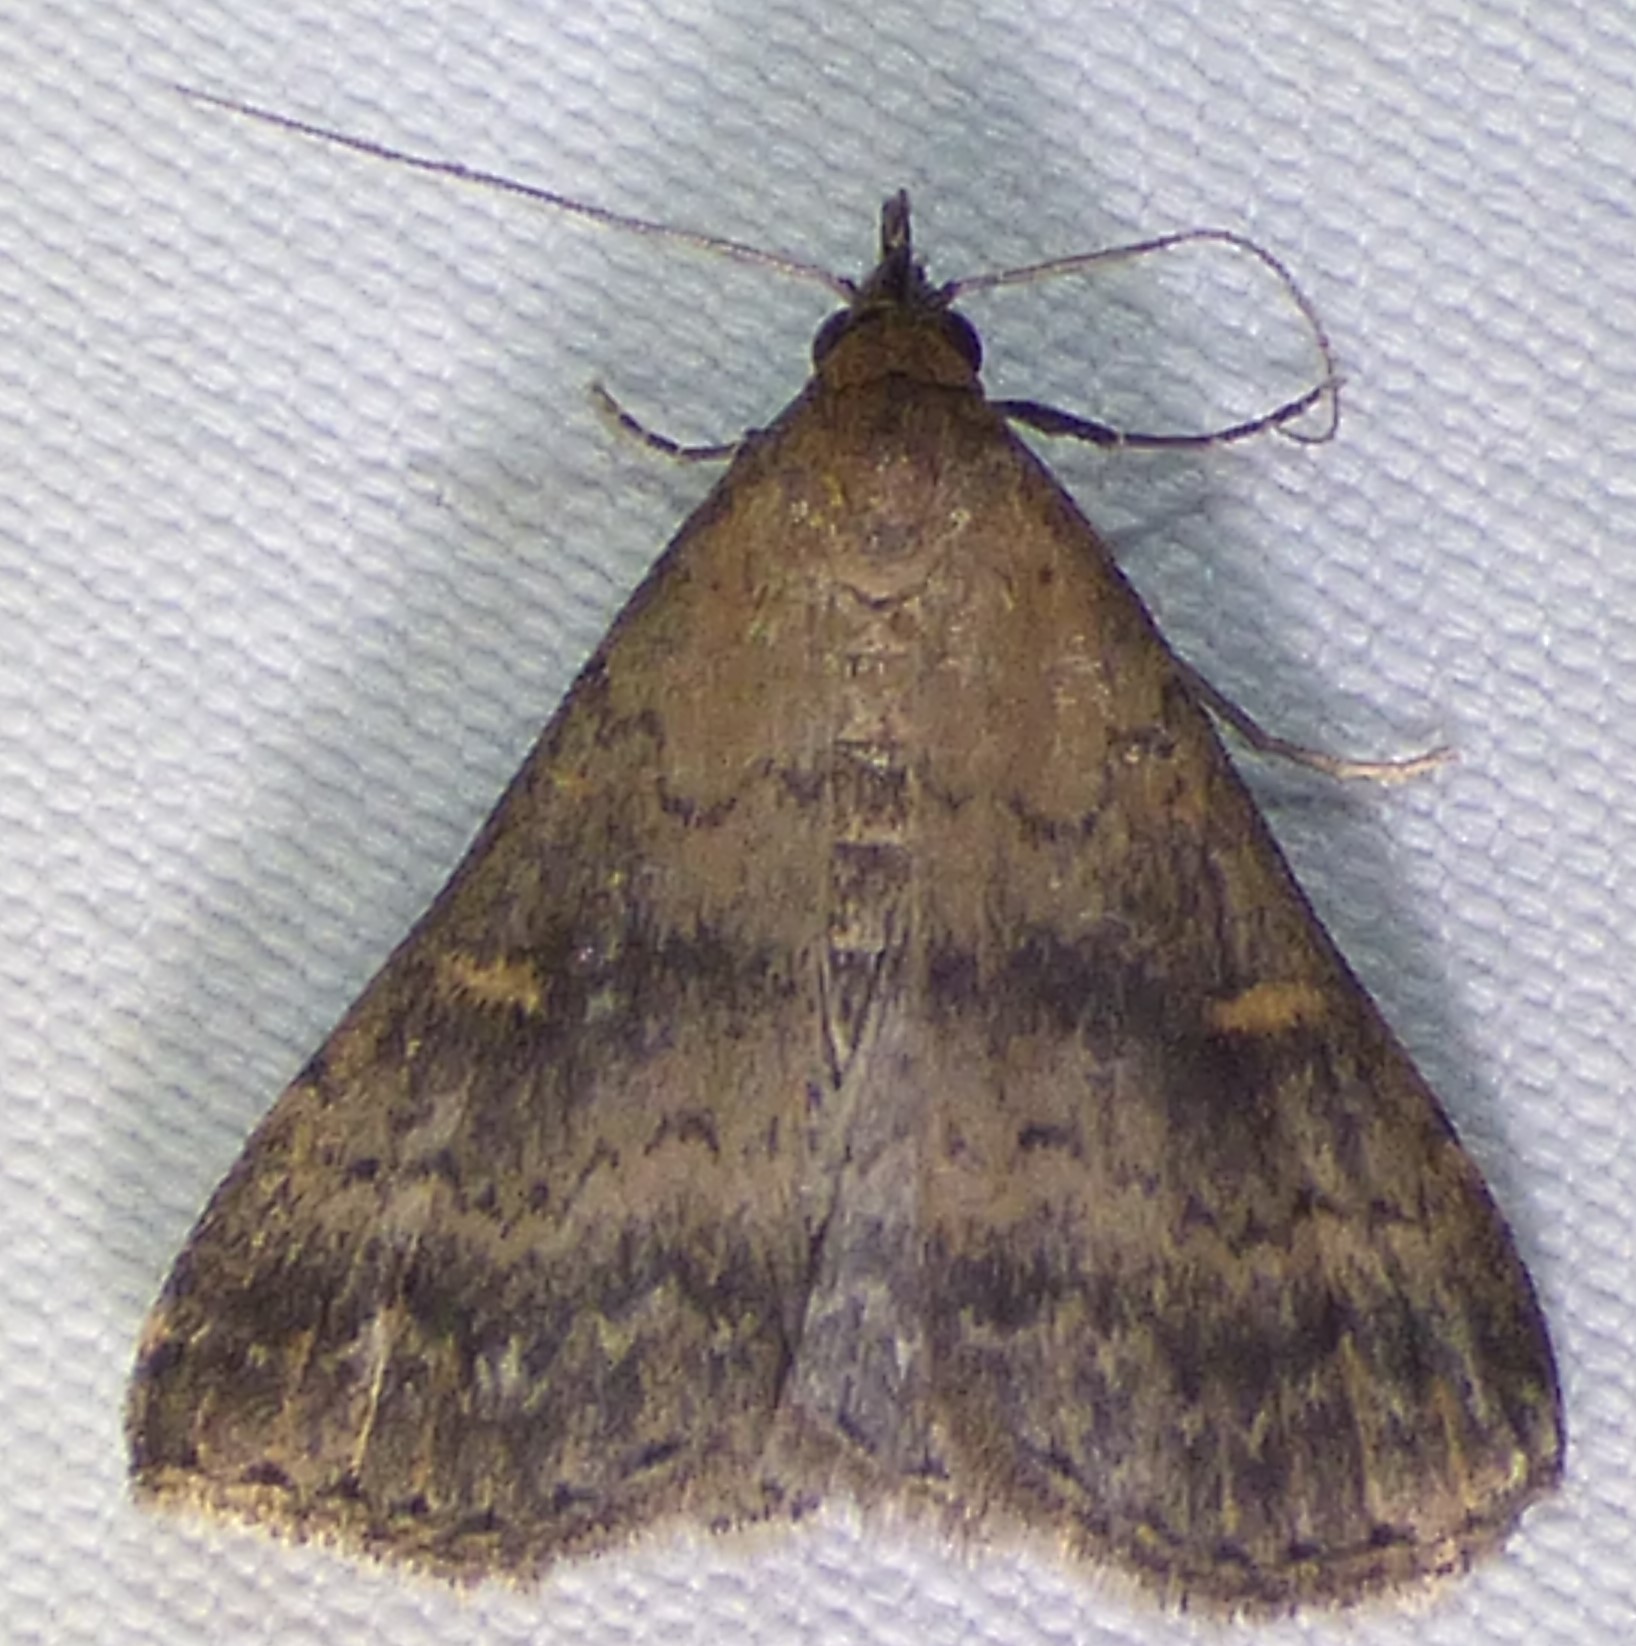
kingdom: Animalia
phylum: Arthropoda
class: Insecta
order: Lepidoptera
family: Erebidae
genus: Tetanolita
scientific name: Tetanolita floridana
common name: Florida tetanolita moth
